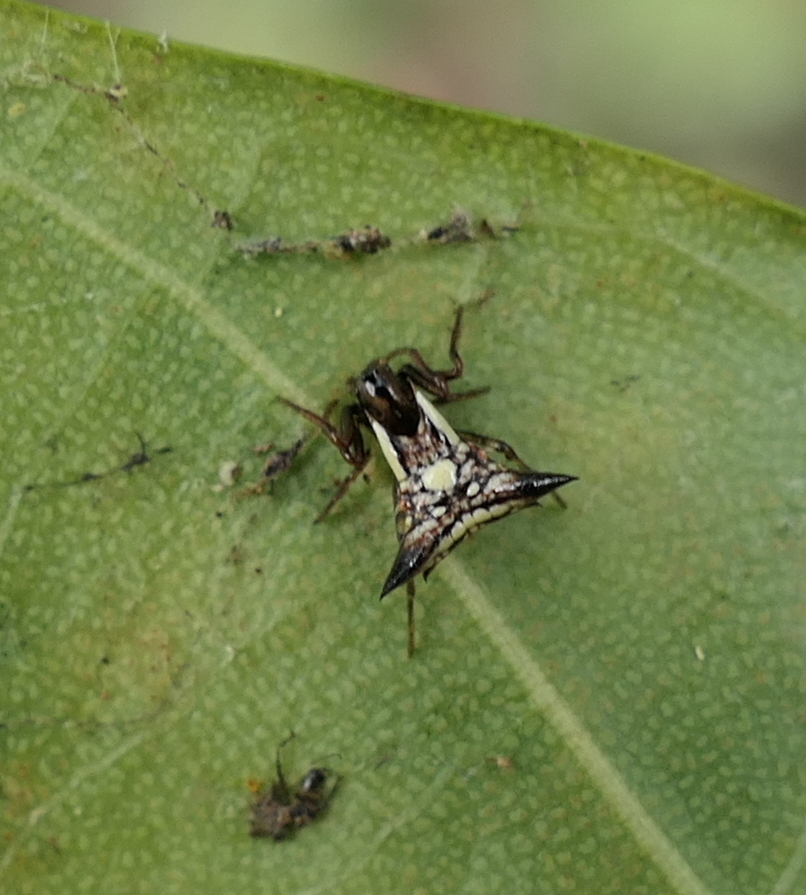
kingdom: Animalia
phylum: Arthropoda
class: Arachnida
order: Araneae
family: Araneidae
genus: Micrathena
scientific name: Micrathena evansi
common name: Orb weavers
